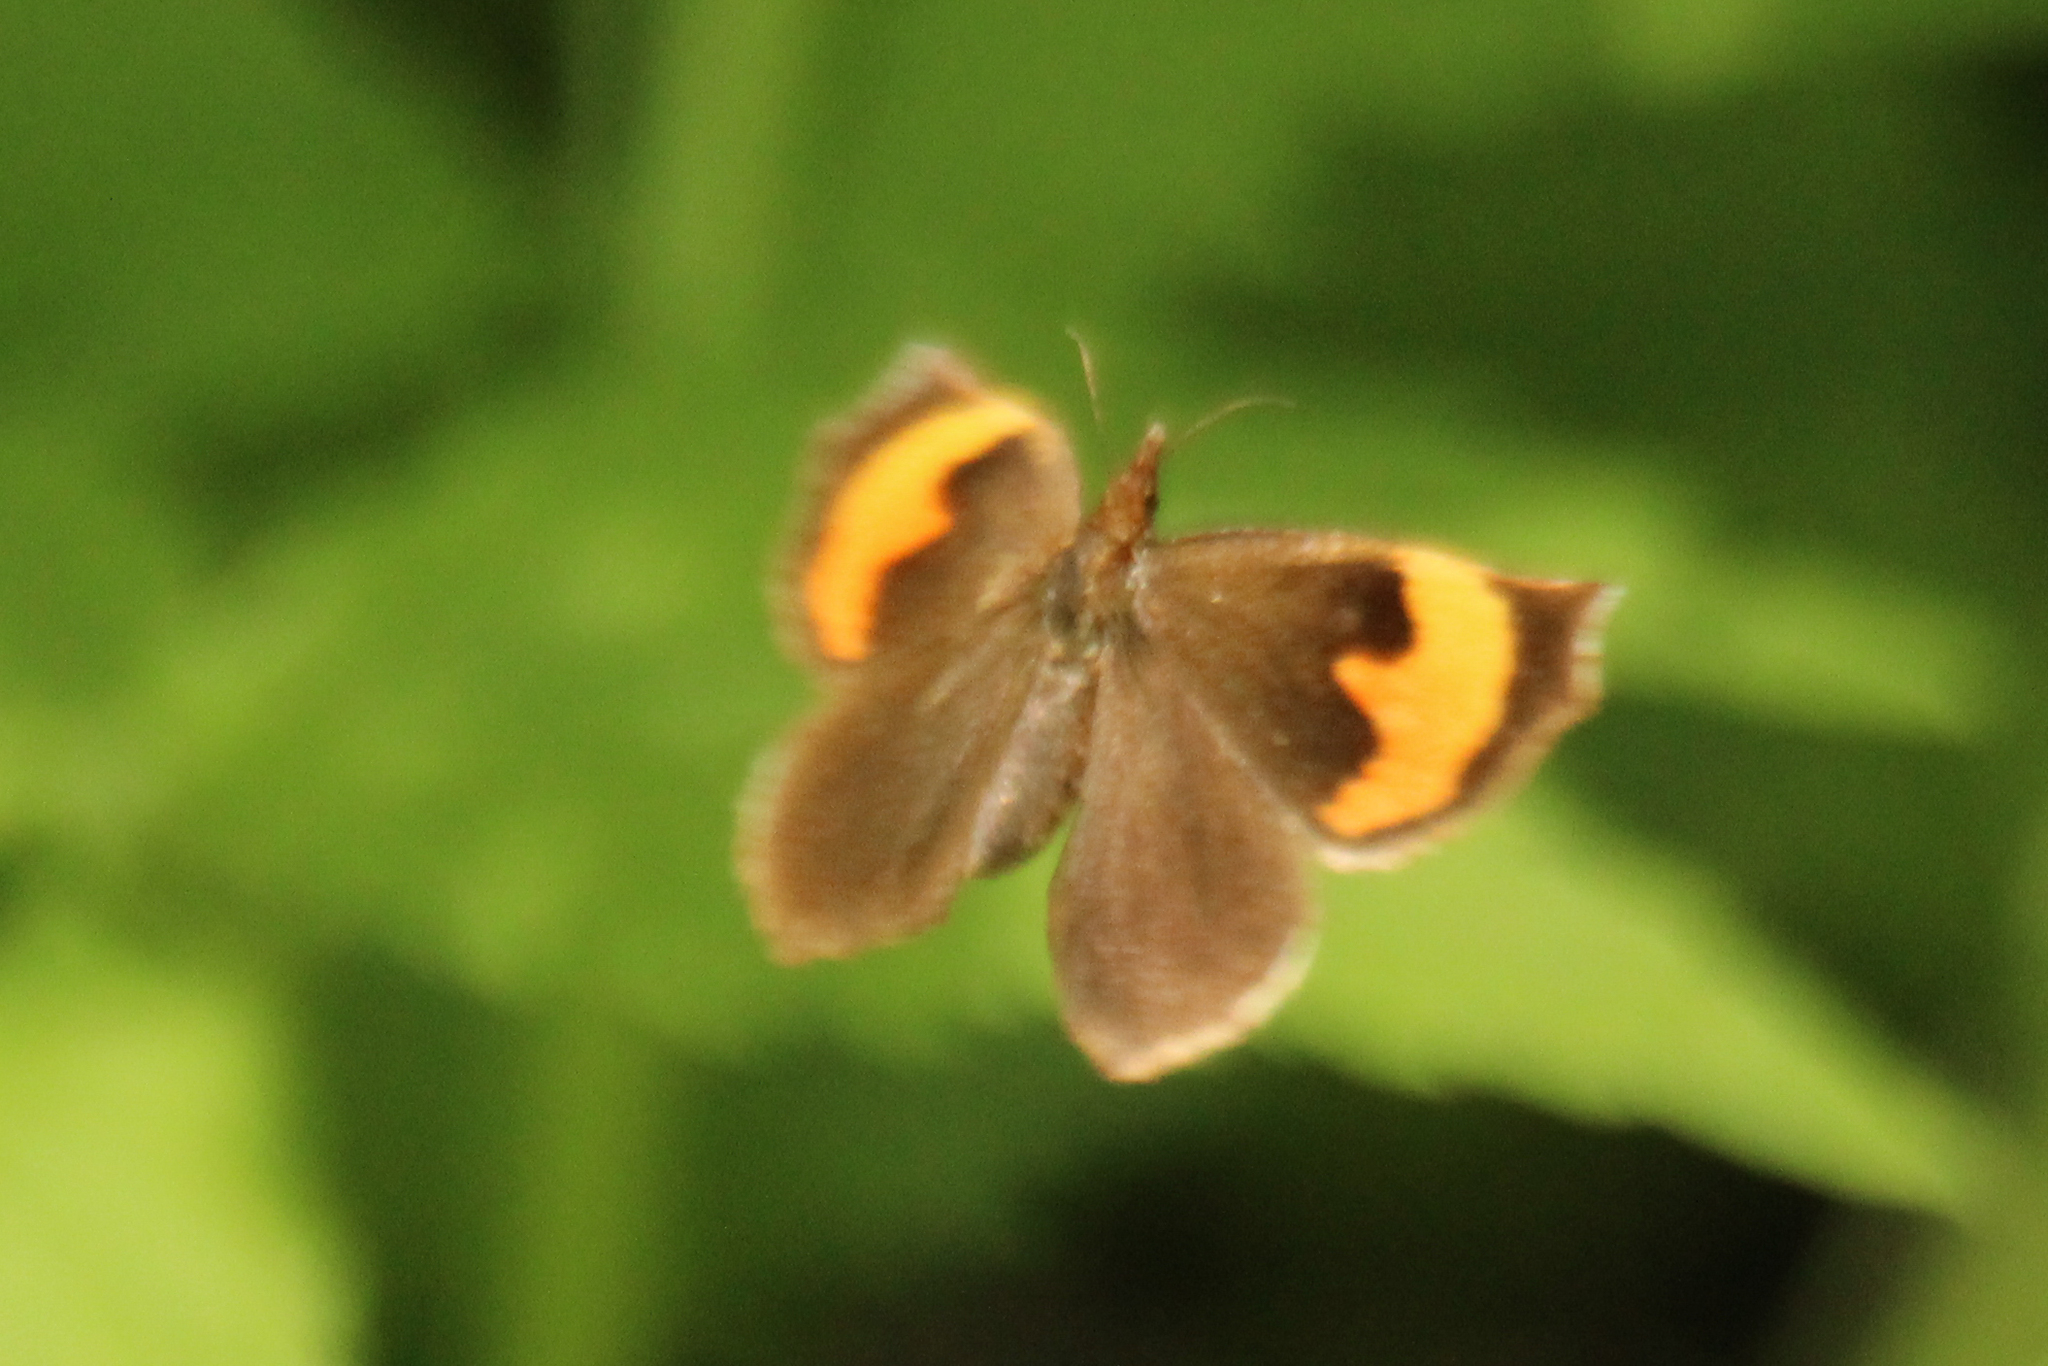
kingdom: Animalia
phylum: Arthropoda
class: Insecta
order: Lepidoptera
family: Callidulidae
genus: Pterodecta
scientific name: Pterodecta felderi
